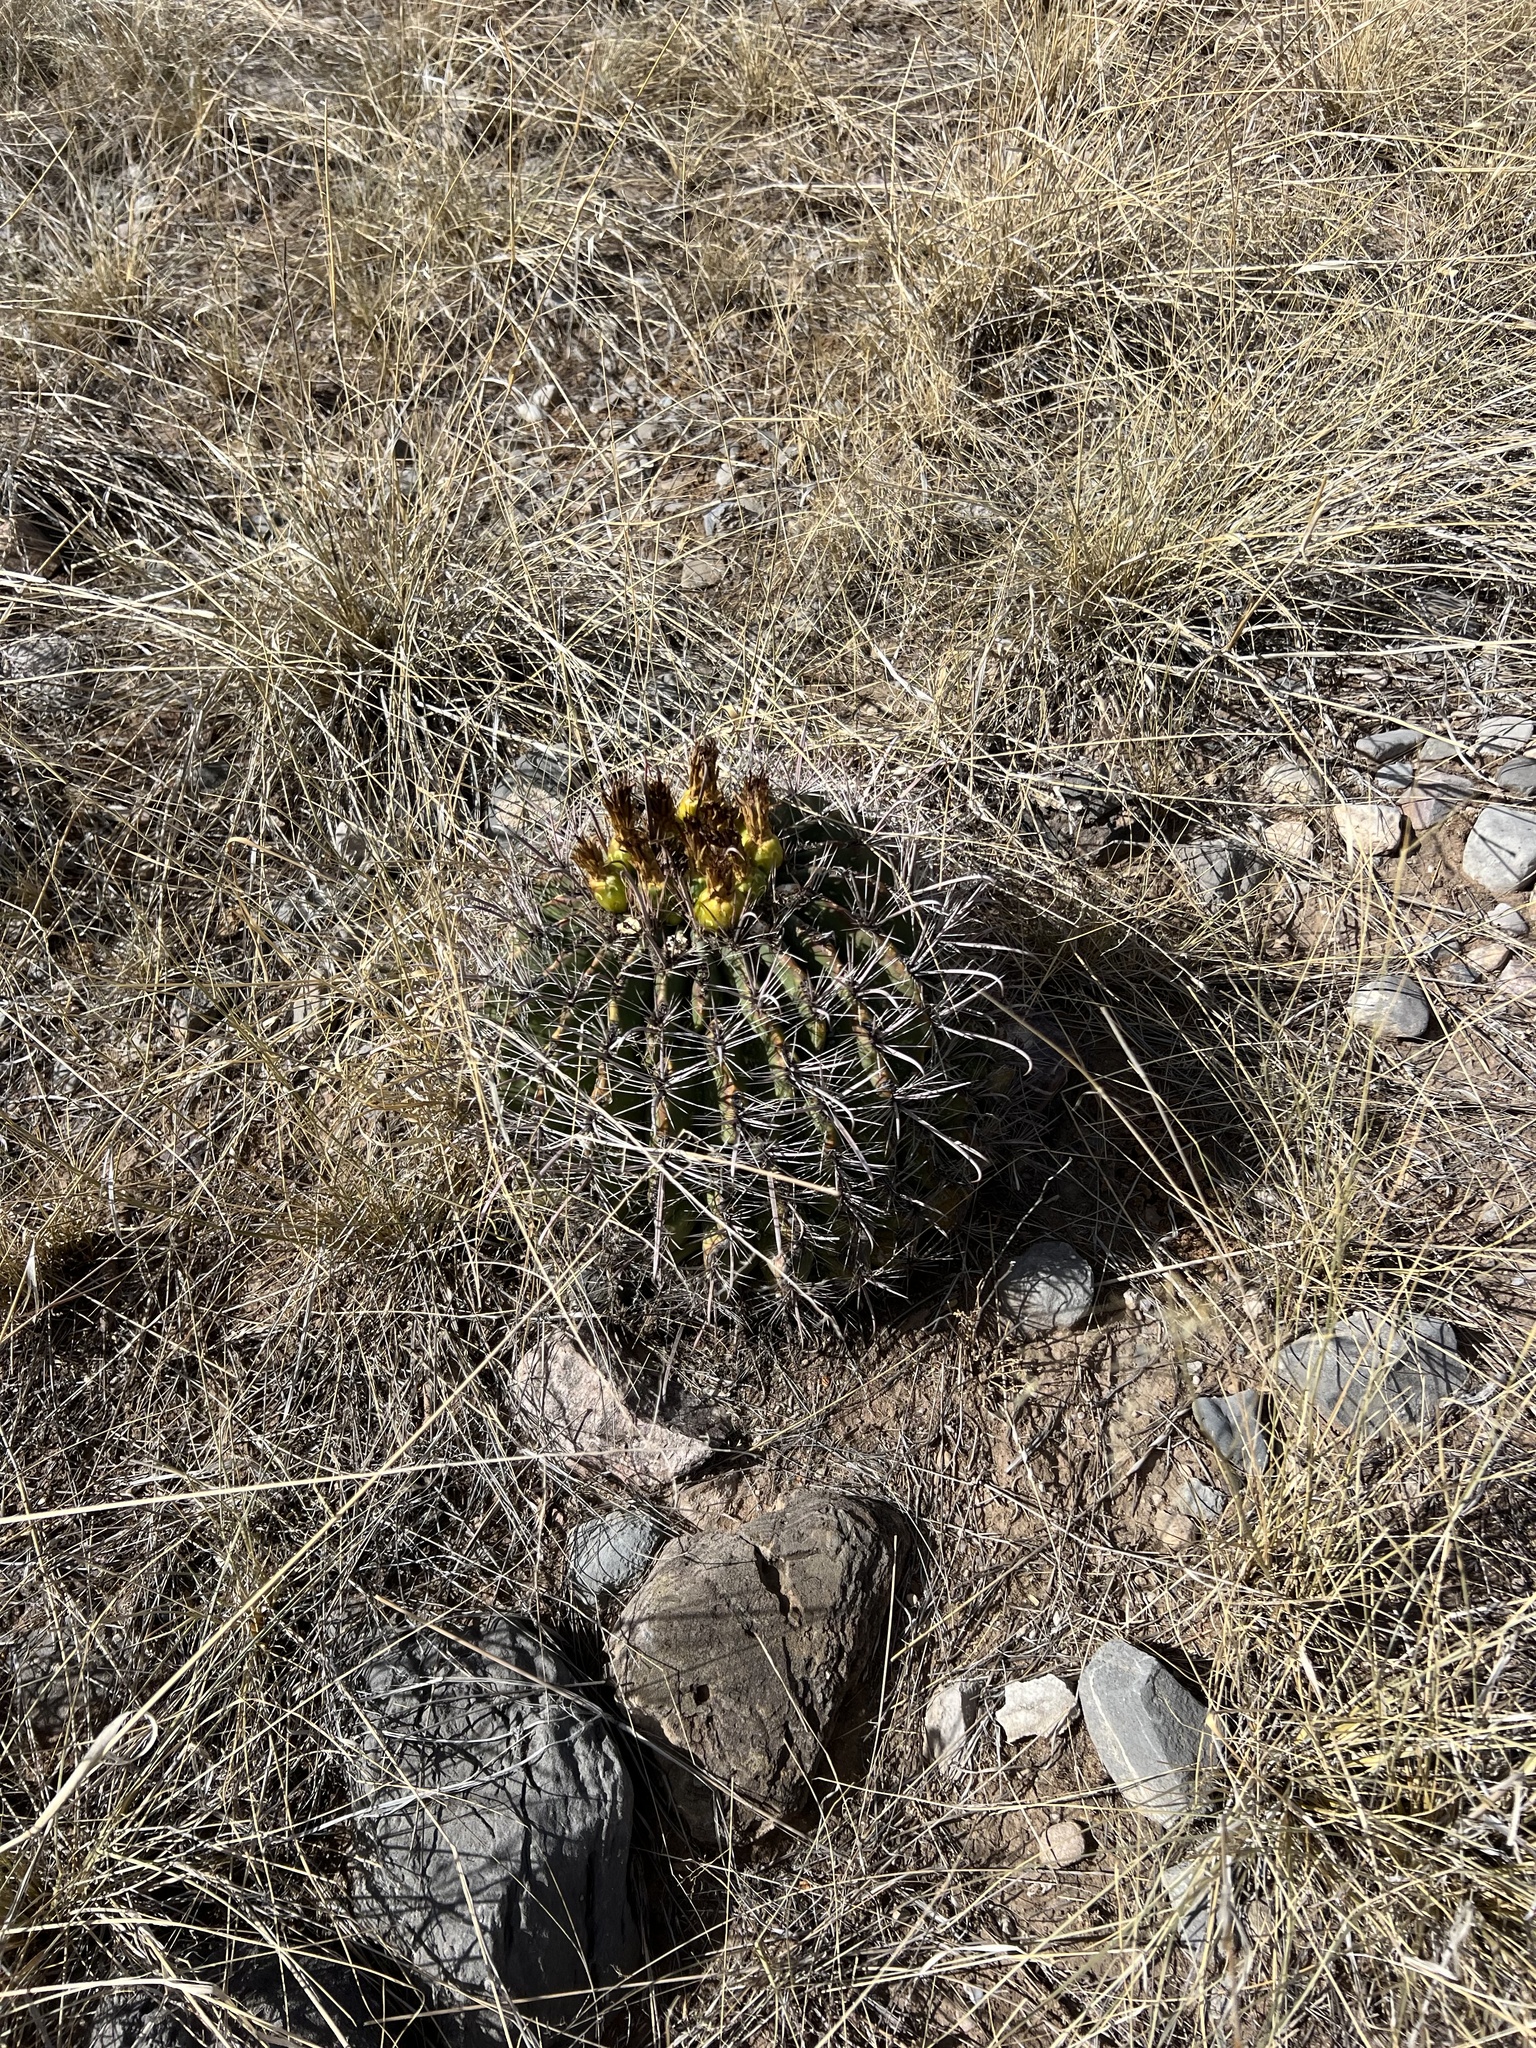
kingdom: Plantae
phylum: Tracheophyta
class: Magnoliopsida
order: Caryophyllales
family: Cactaceae
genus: Ferocactus
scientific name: Ferocactus wislizeni
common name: Candy barrel cactus
